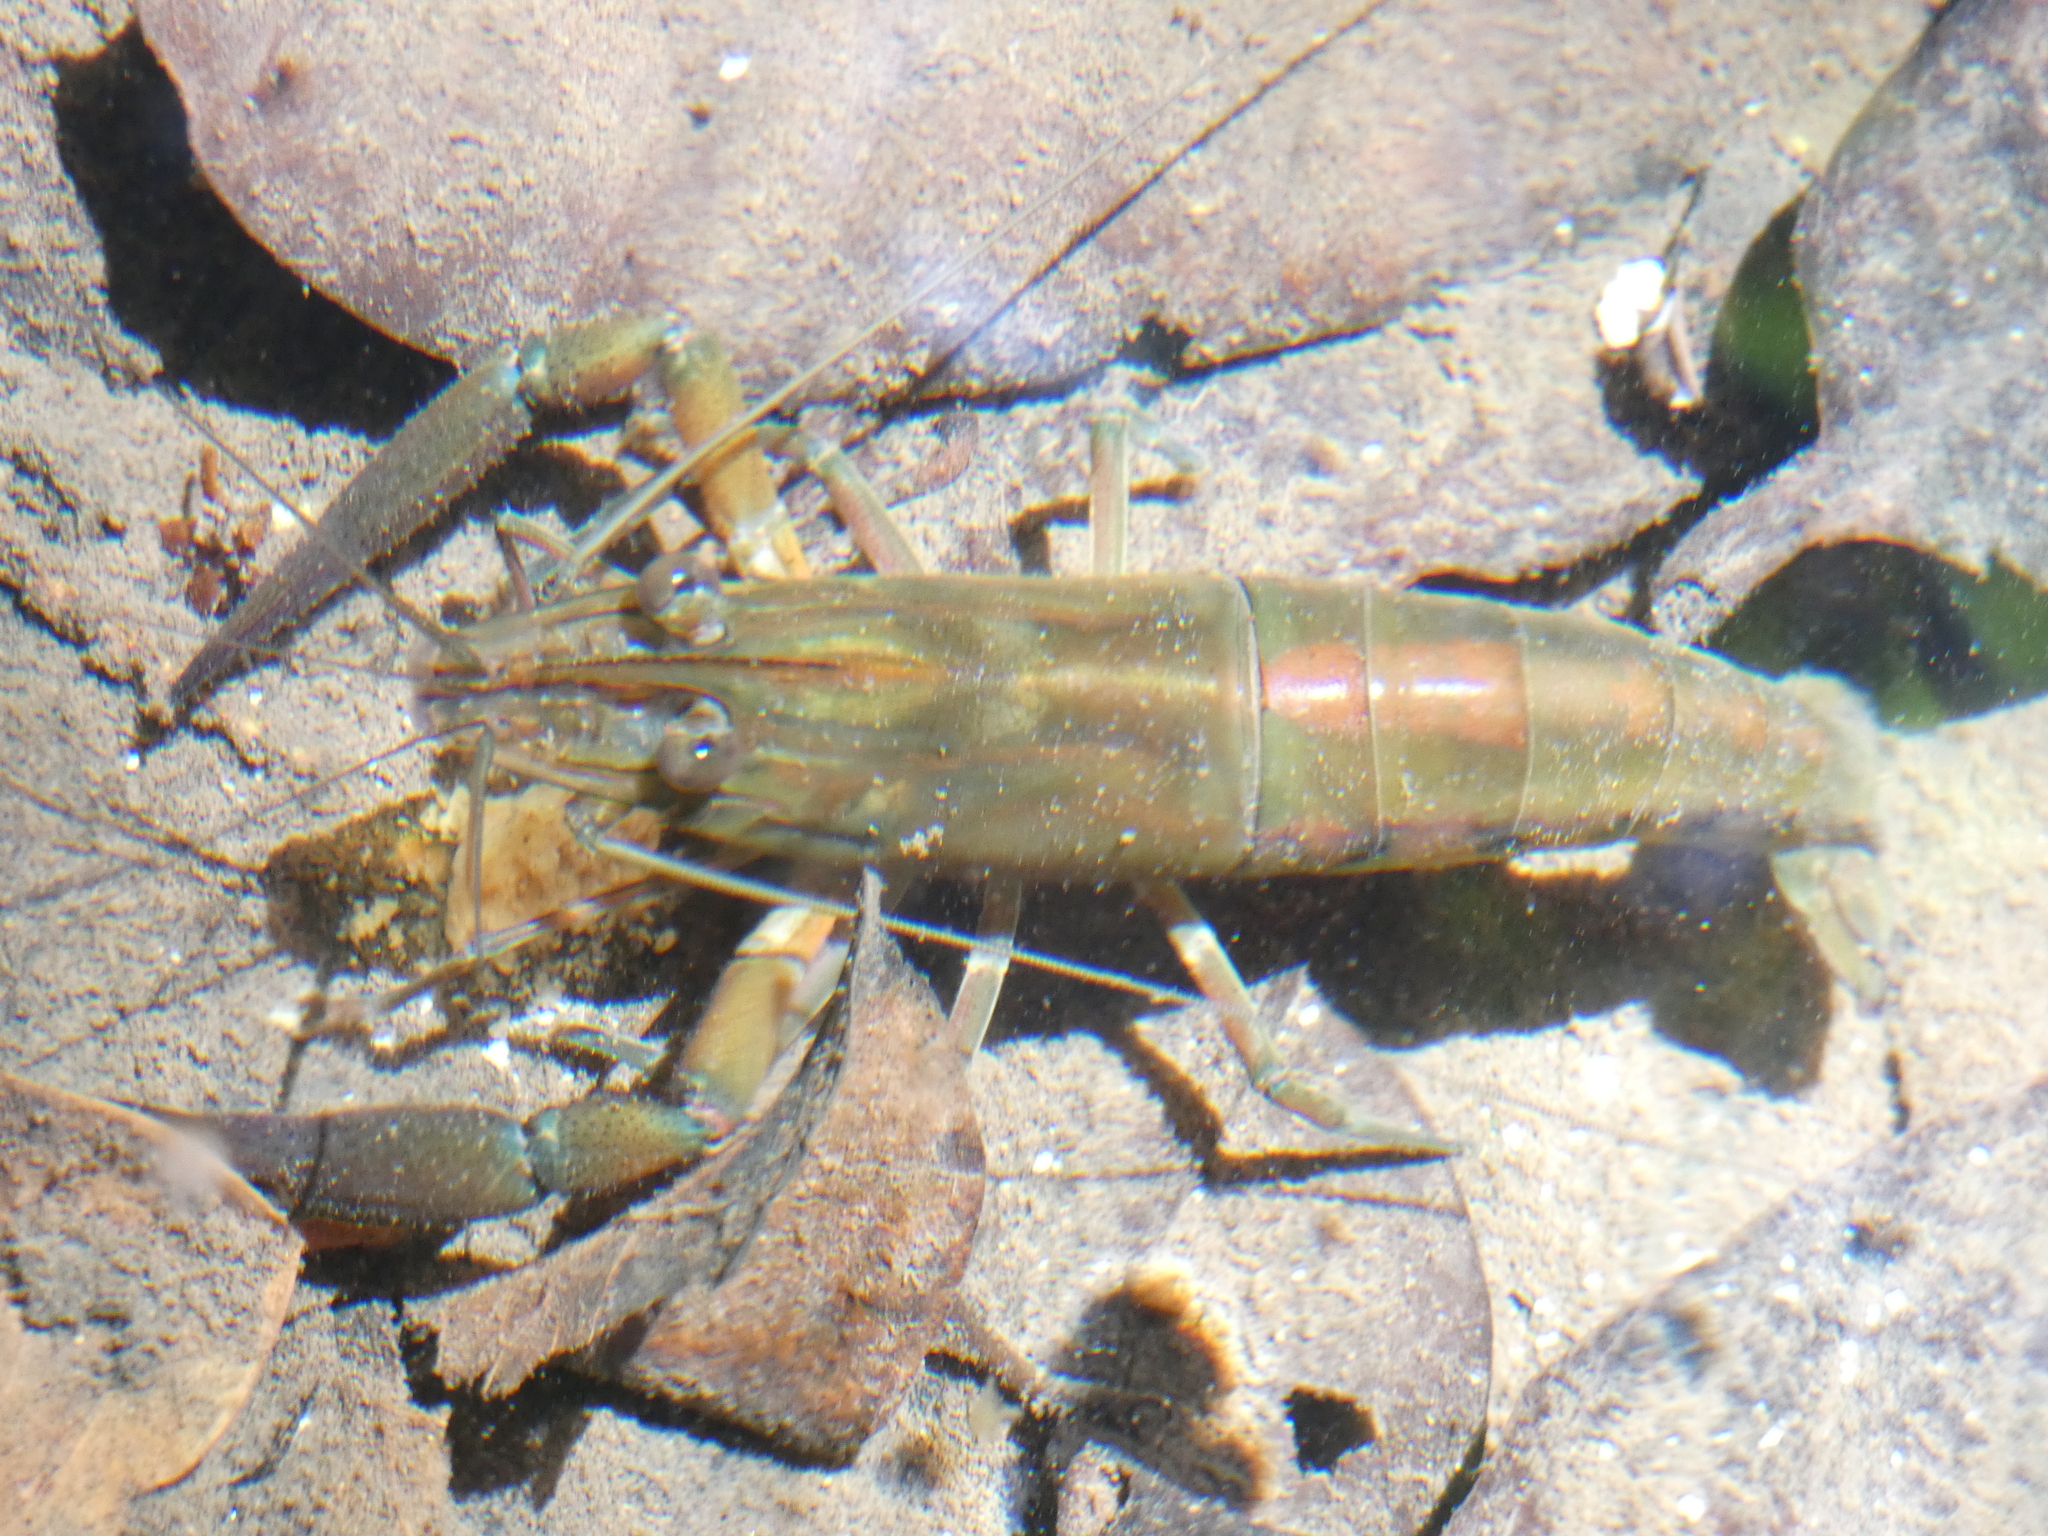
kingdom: Animalia
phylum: Arthropoda
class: Malacostraca
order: Decapoda
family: Palaemonidae
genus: Macrobrachium
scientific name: Macrobrachium americanum
